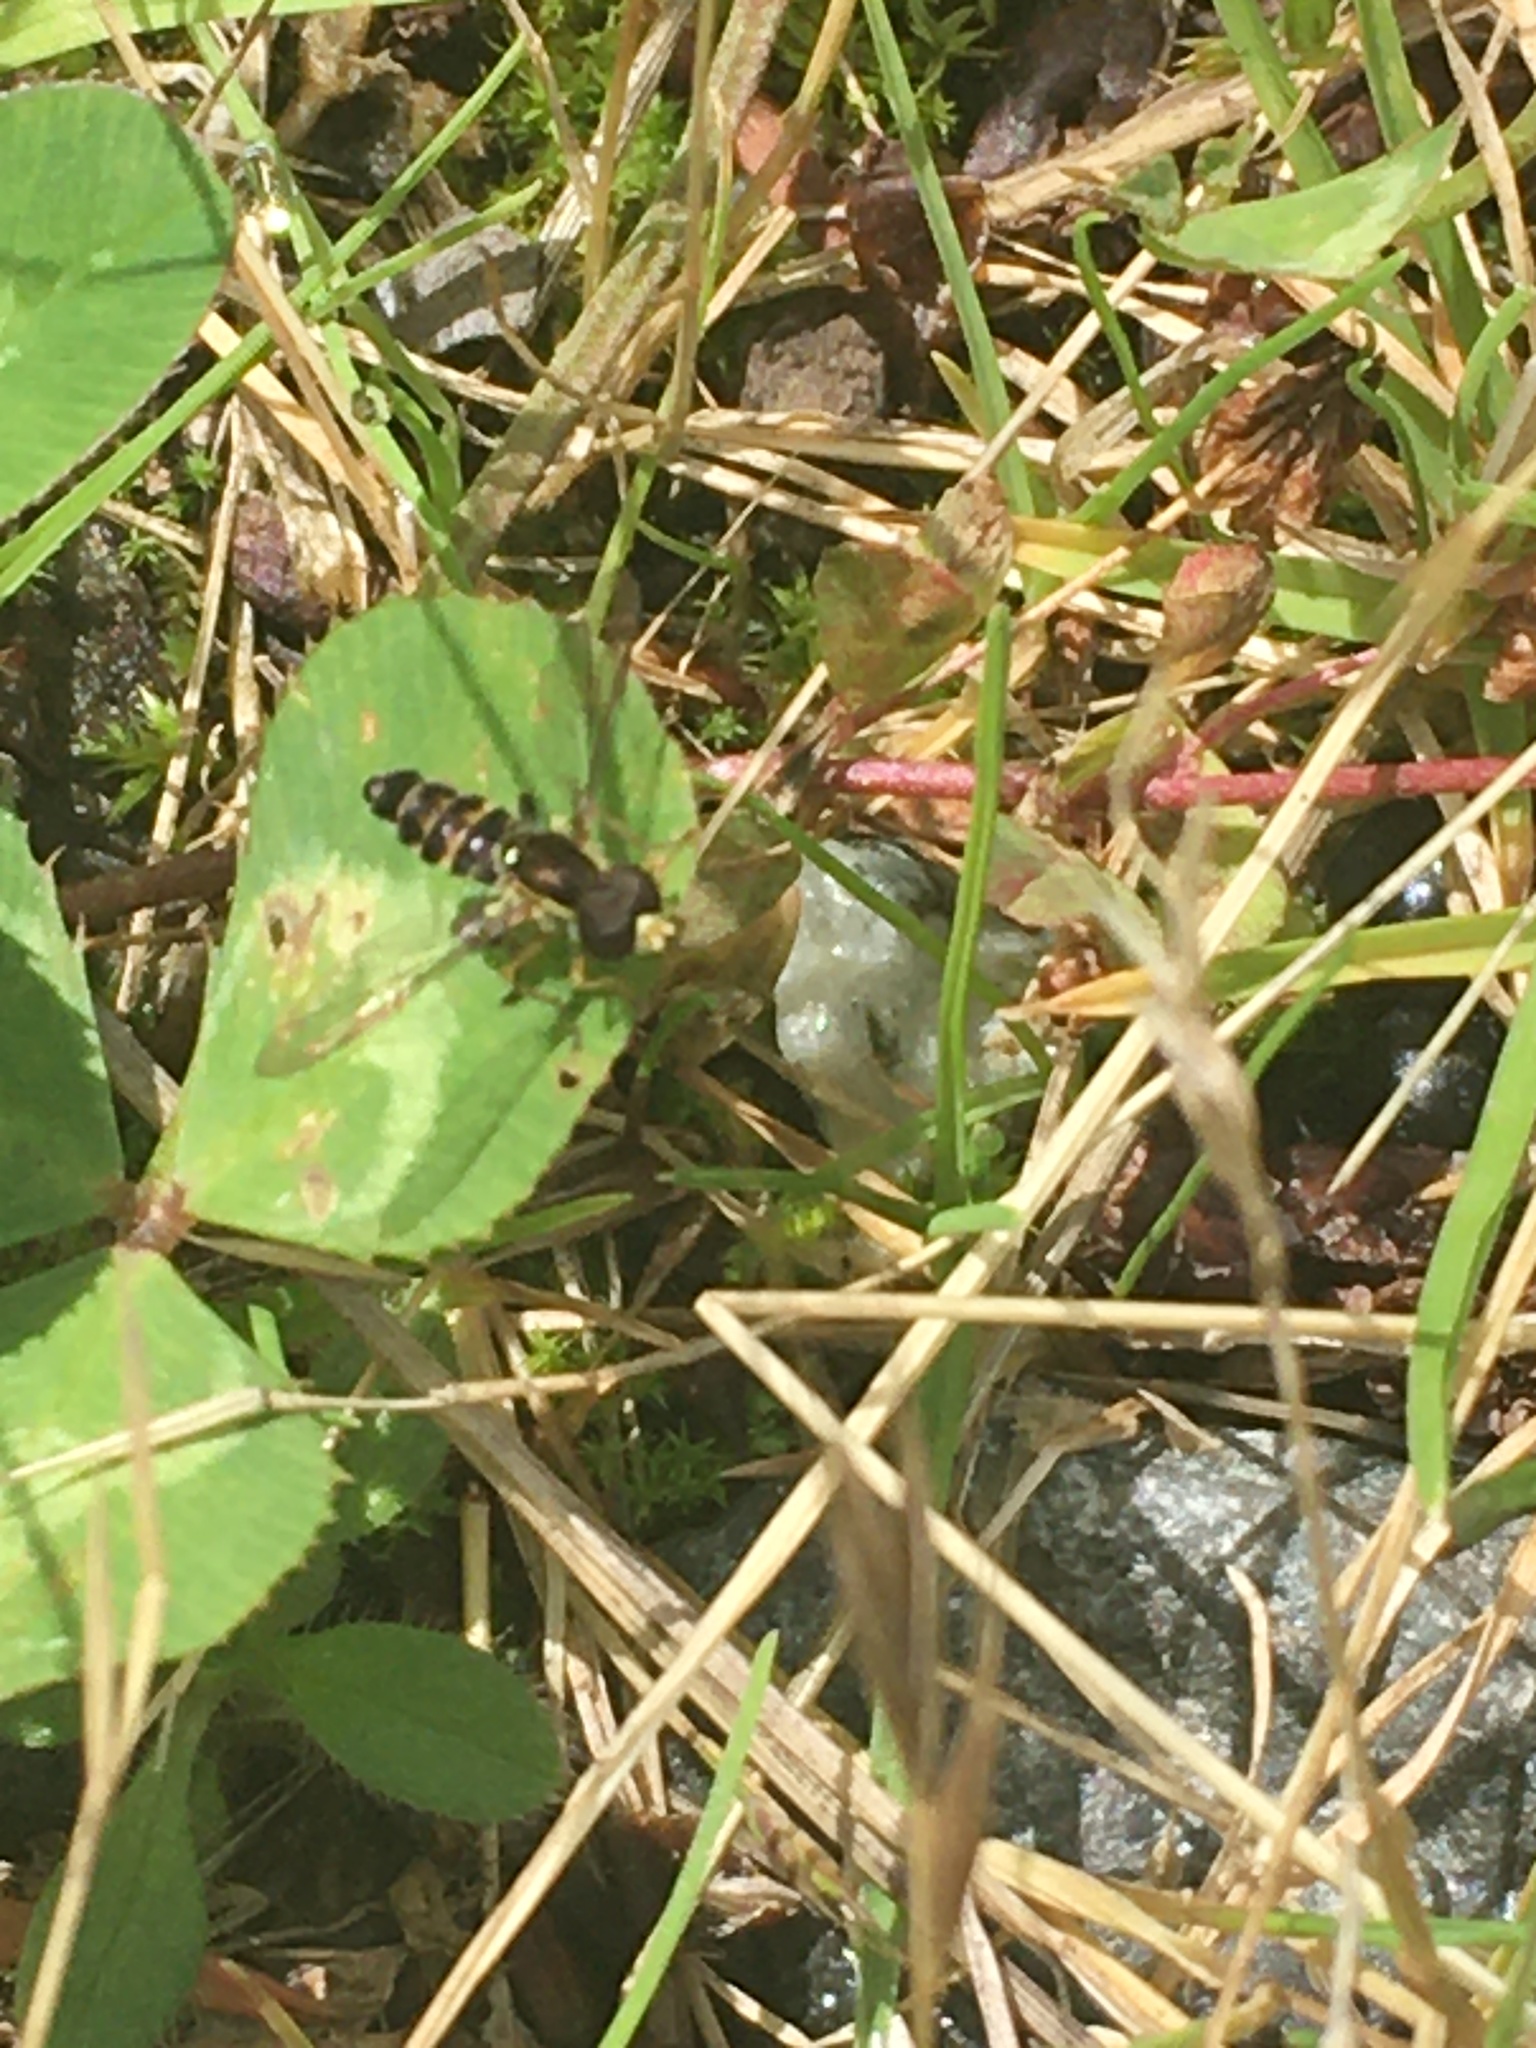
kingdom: Animalia
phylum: Arthropoda
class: Insecta
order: Diptera
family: Syrphidae
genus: Toxomerus
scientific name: Toxomerus occidentalis
